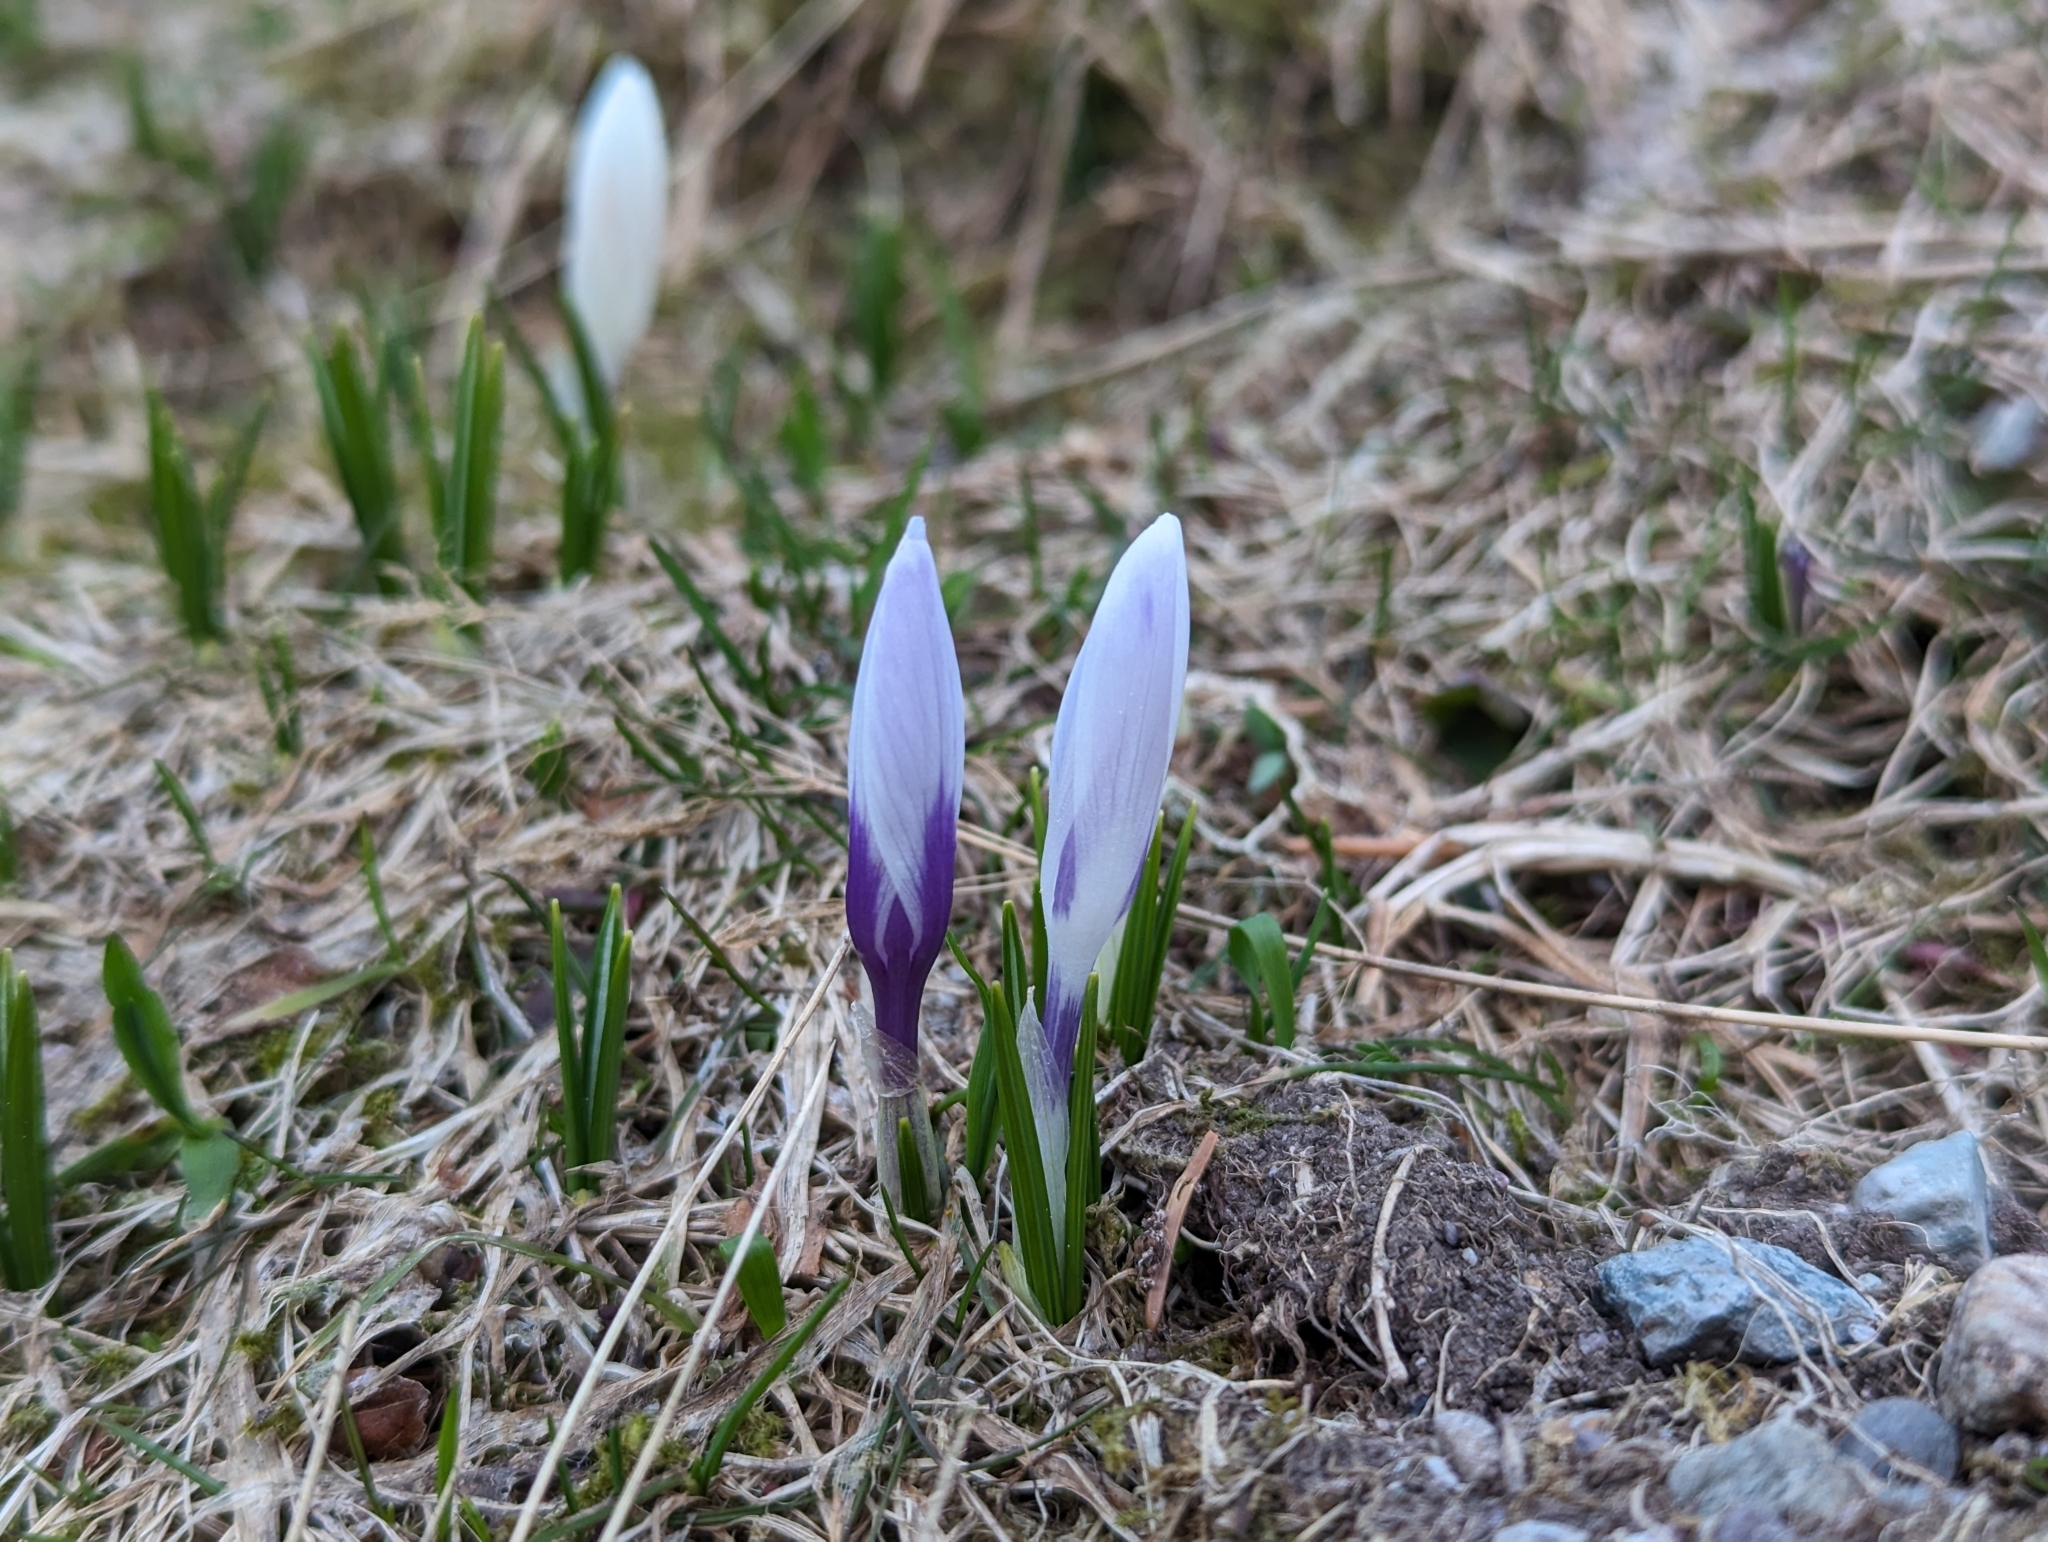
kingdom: Plantae
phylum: Tracheophyta
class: Liliopsida
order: Asparagales
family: Iridaceae
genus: Crocus
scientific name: Crocus vernus
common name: Spring crocus
